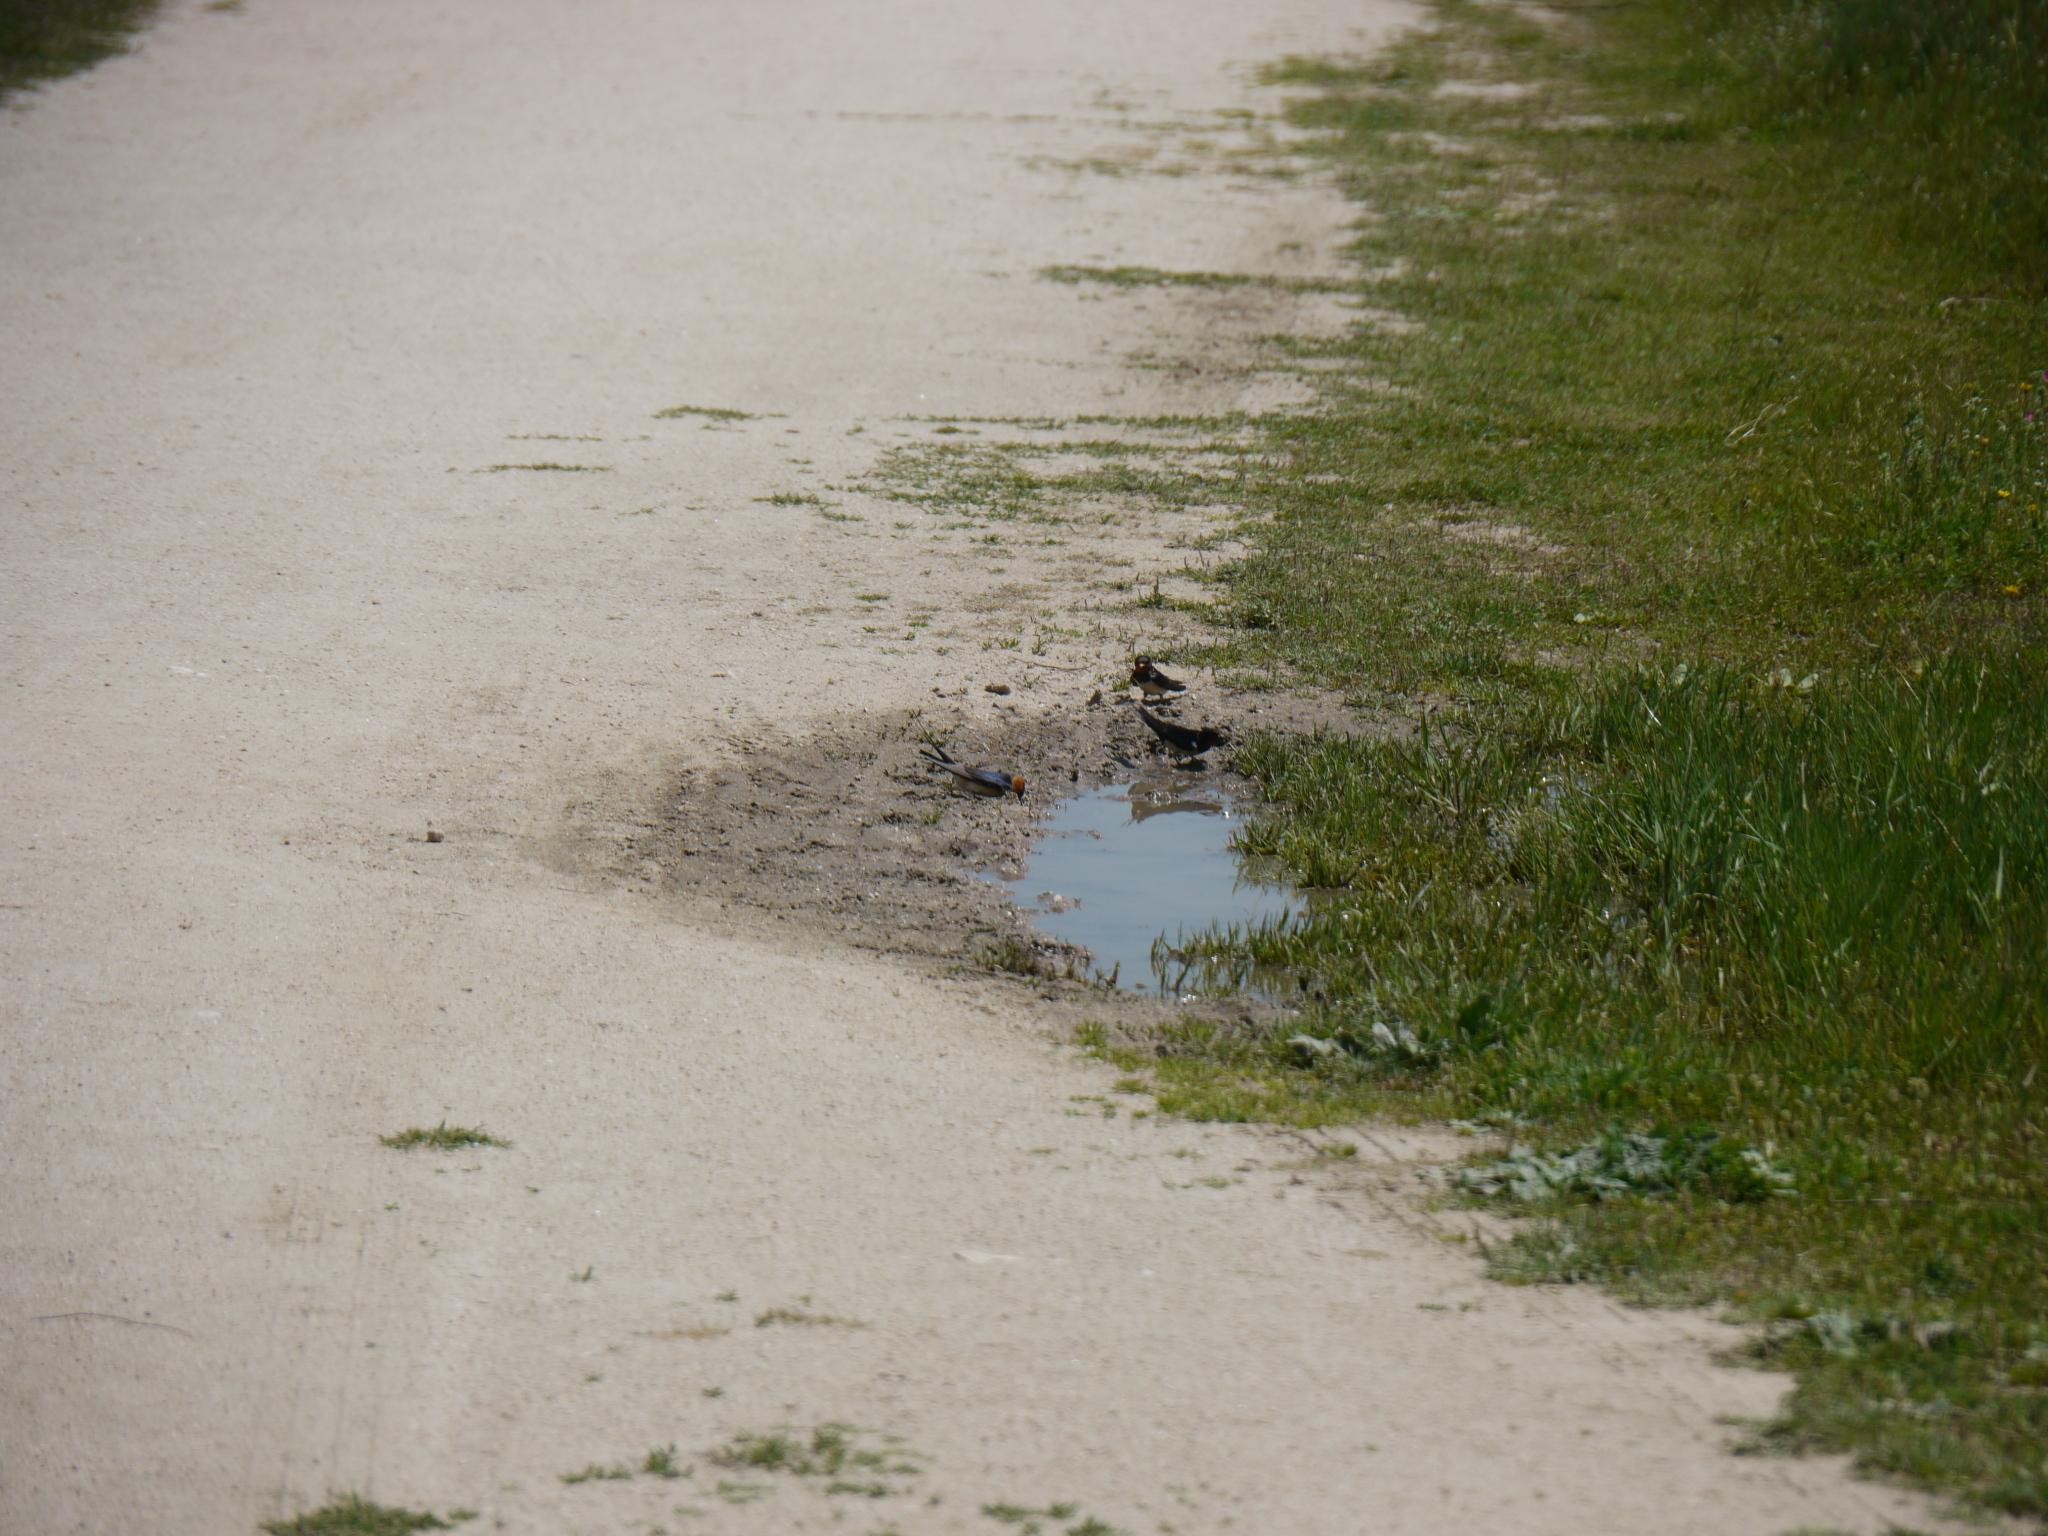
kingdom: Animalia
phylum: Chordata
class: Aves
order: Passeriformes
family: Hirundinidae
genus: Hirundo
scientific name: Hirundo rustica
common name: Barn swallow
